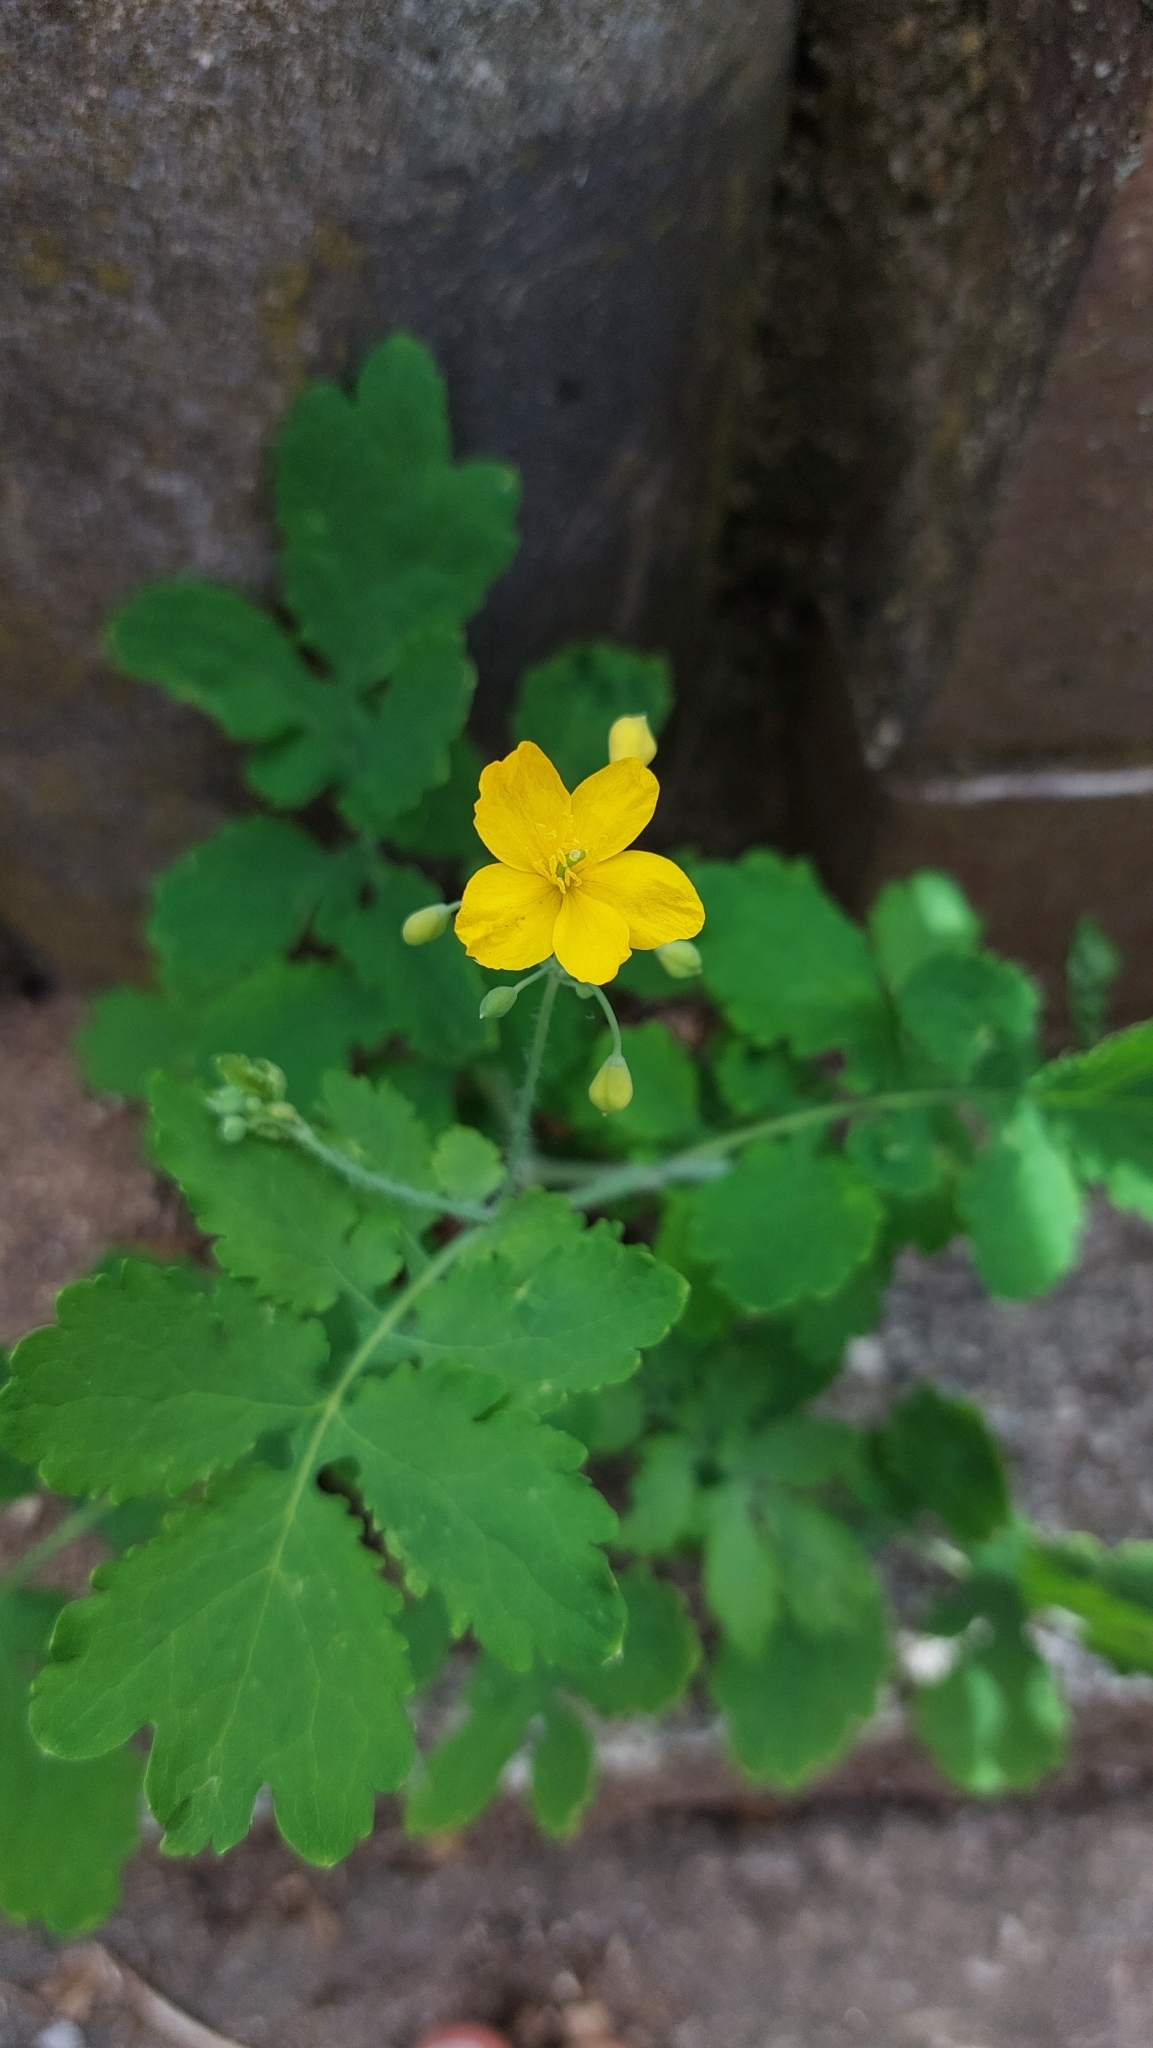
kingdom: Plantae
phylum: Tracheophyta
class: Magnoliopsida
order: Ranunculales
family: Papaveraceae
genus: Chelidonium
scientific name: Chelidonium majus
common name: Greater celandine
